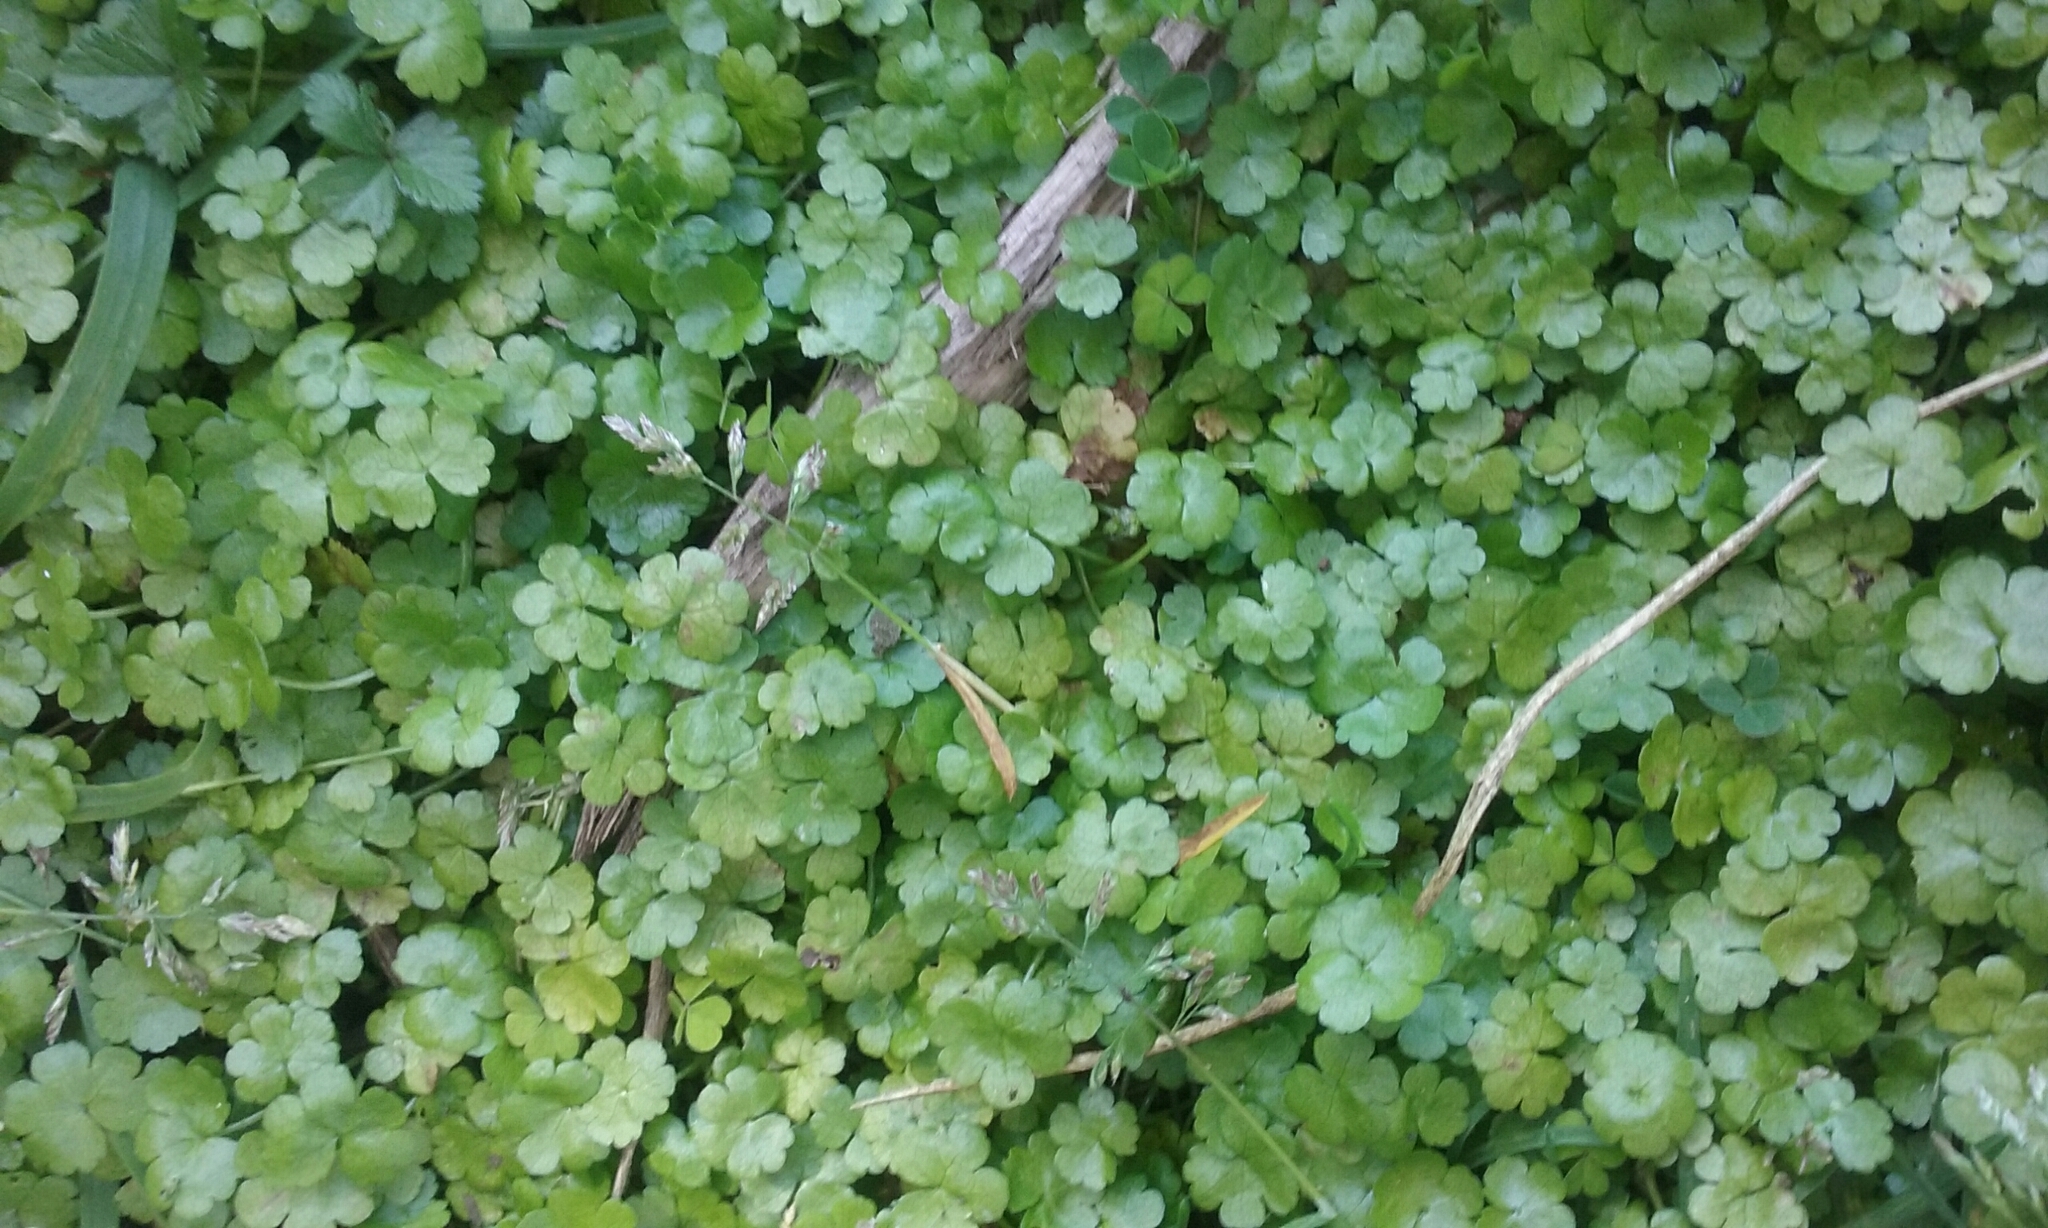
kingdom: Plantae
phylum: Tracheophyta
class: Magnoliopsida
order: Apiales
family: Araliaceae
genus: Hydrocotyle
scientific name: Hydrocotyle heteromeria
